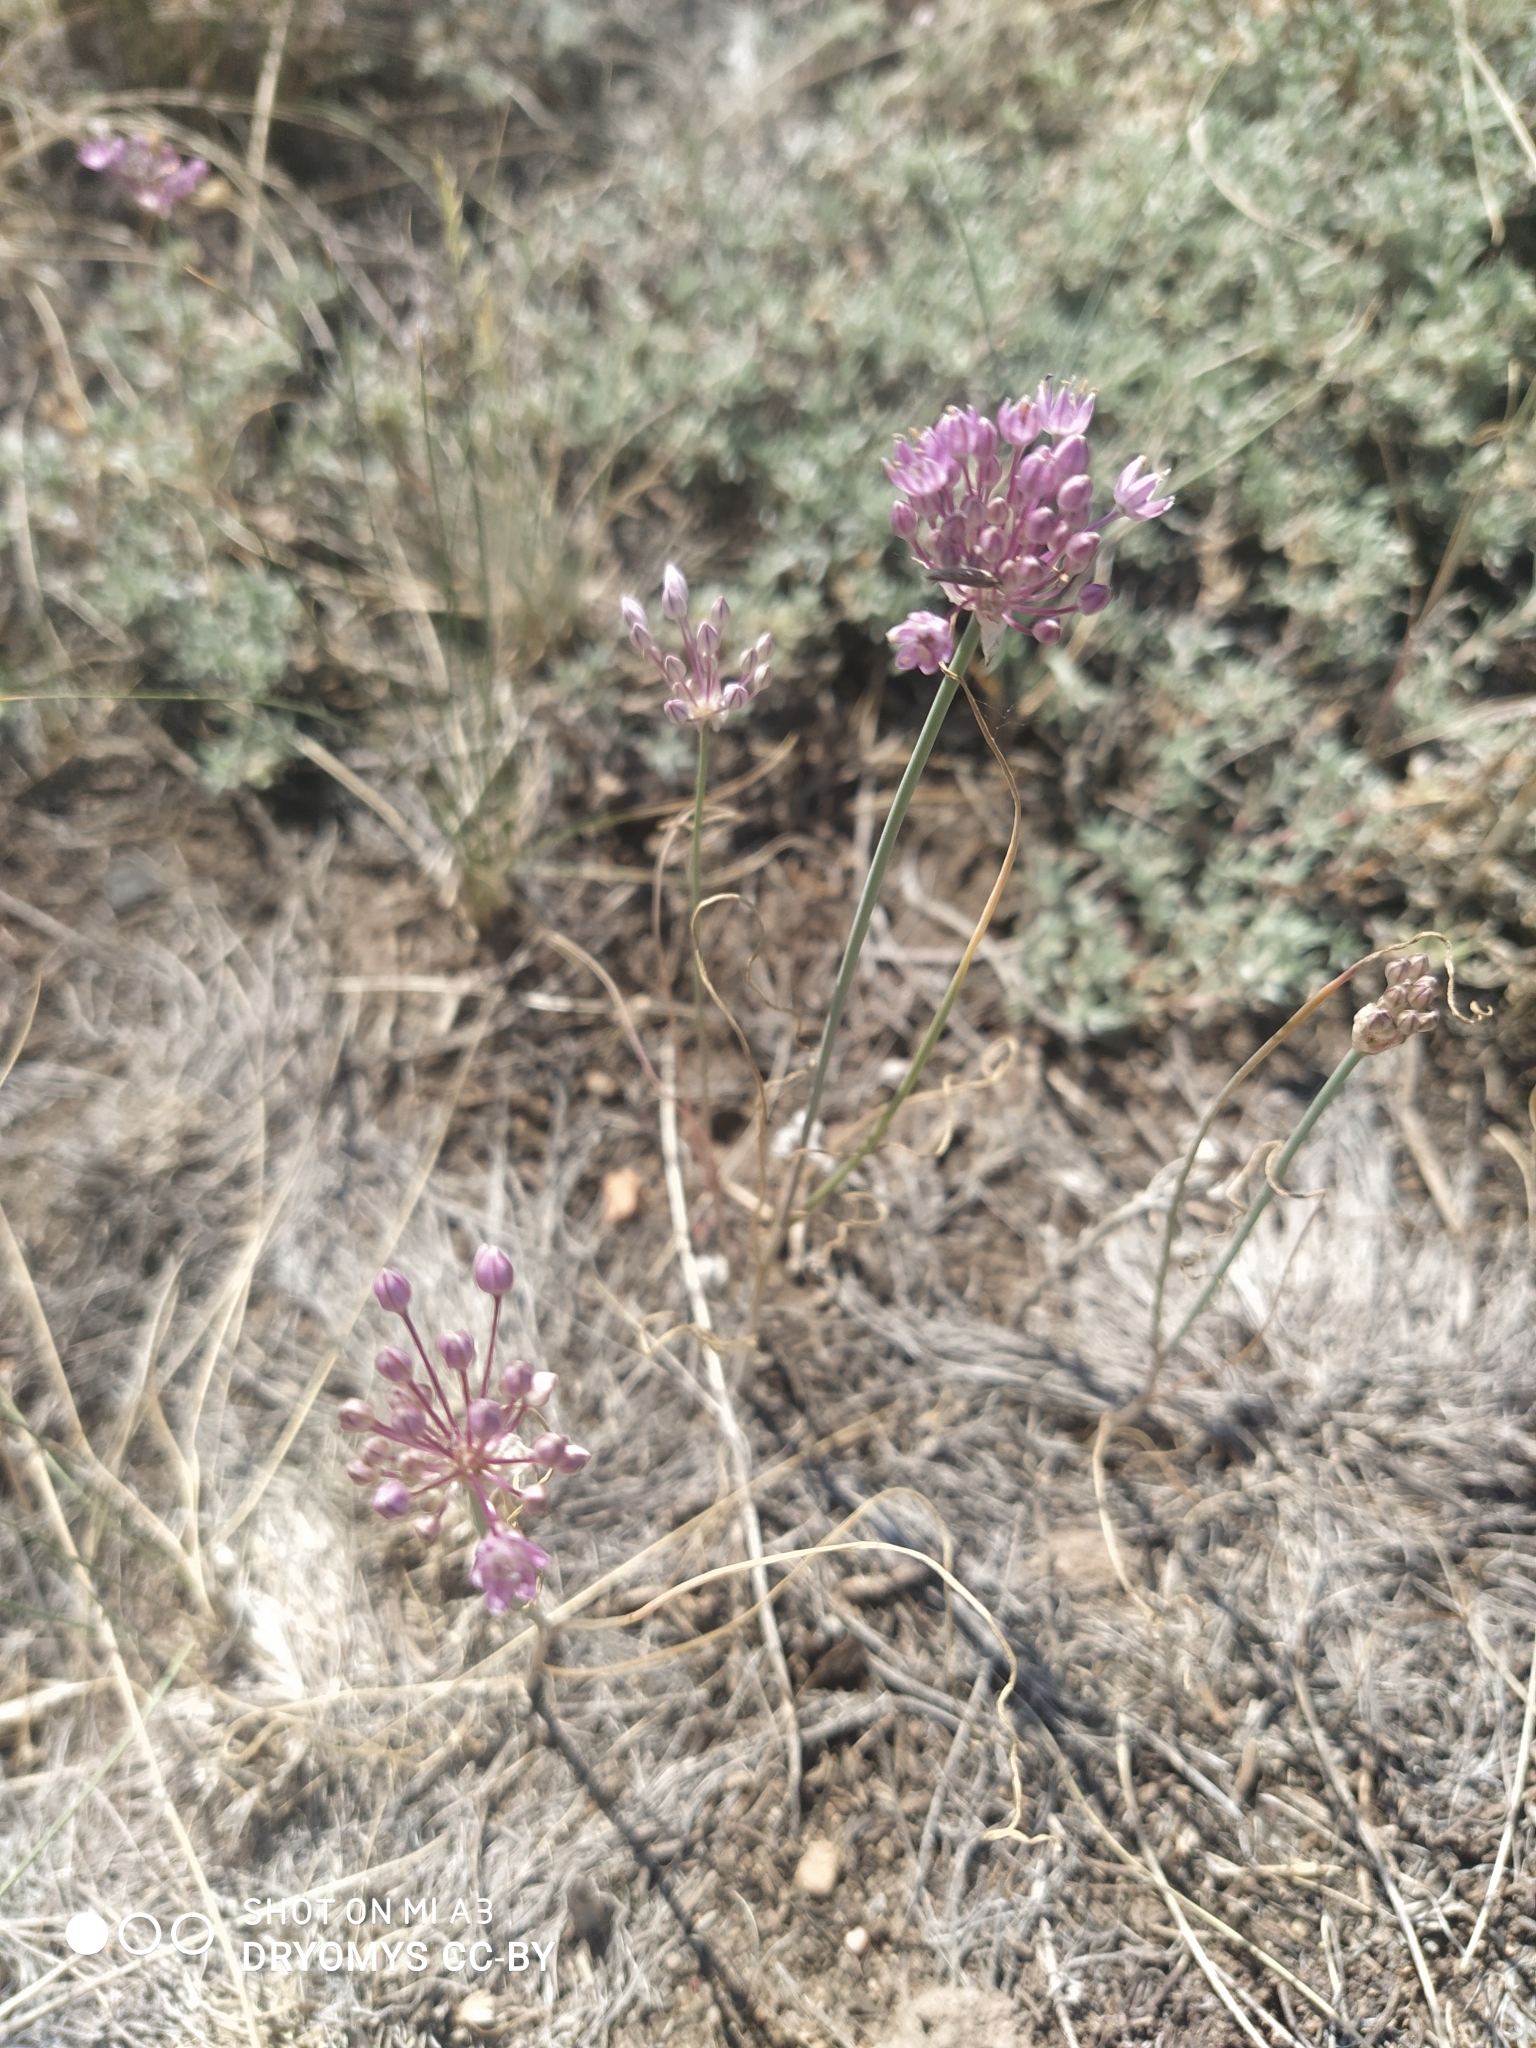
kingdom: Plantae
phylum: Tracheophyta
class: Liliopsida
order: Asparagales
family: Amaryllidaceae
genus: Allium
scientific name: Allium pallasii
